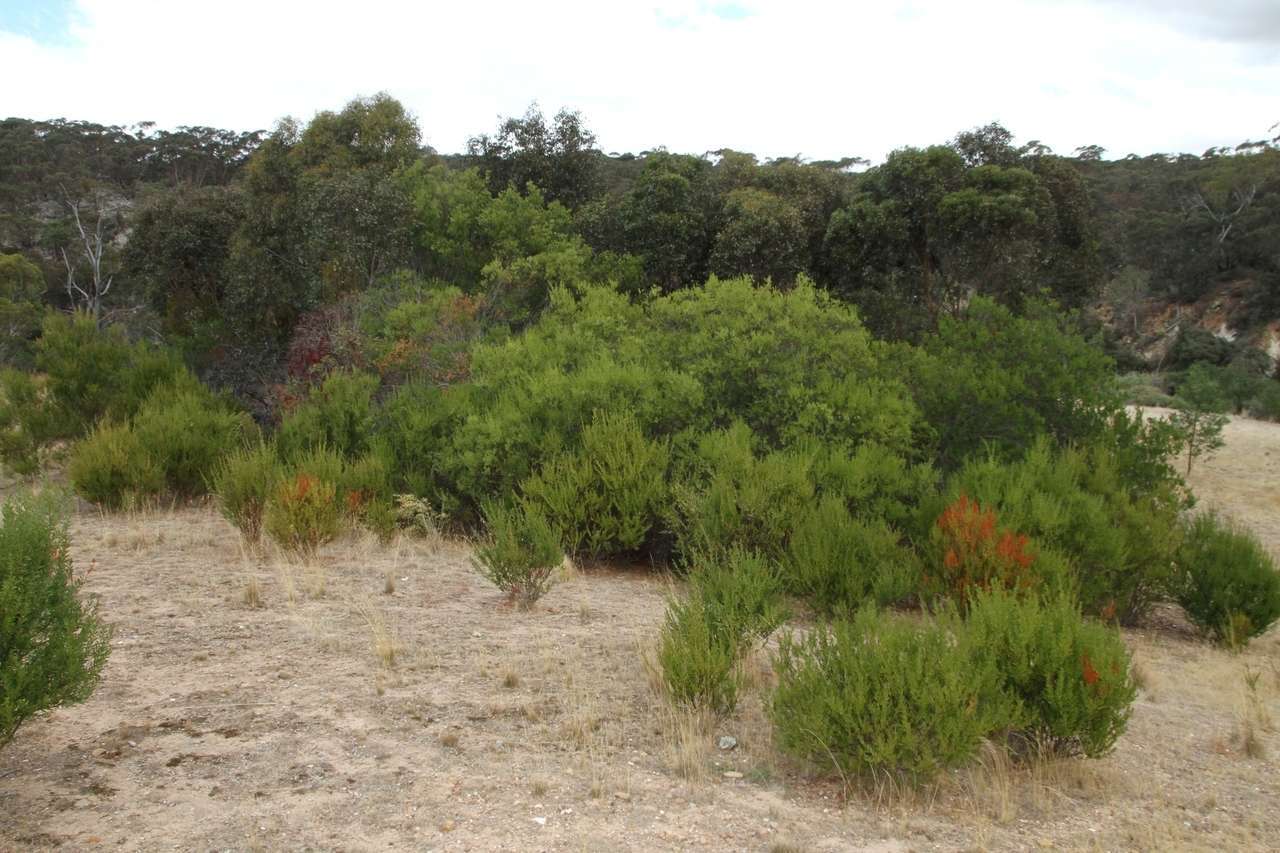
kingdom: Plantae
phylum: Tracheophyta
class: Magnoliopsida
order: Fabales
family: Fabaceae
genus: Acacia
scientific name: Acacia rostriformis
